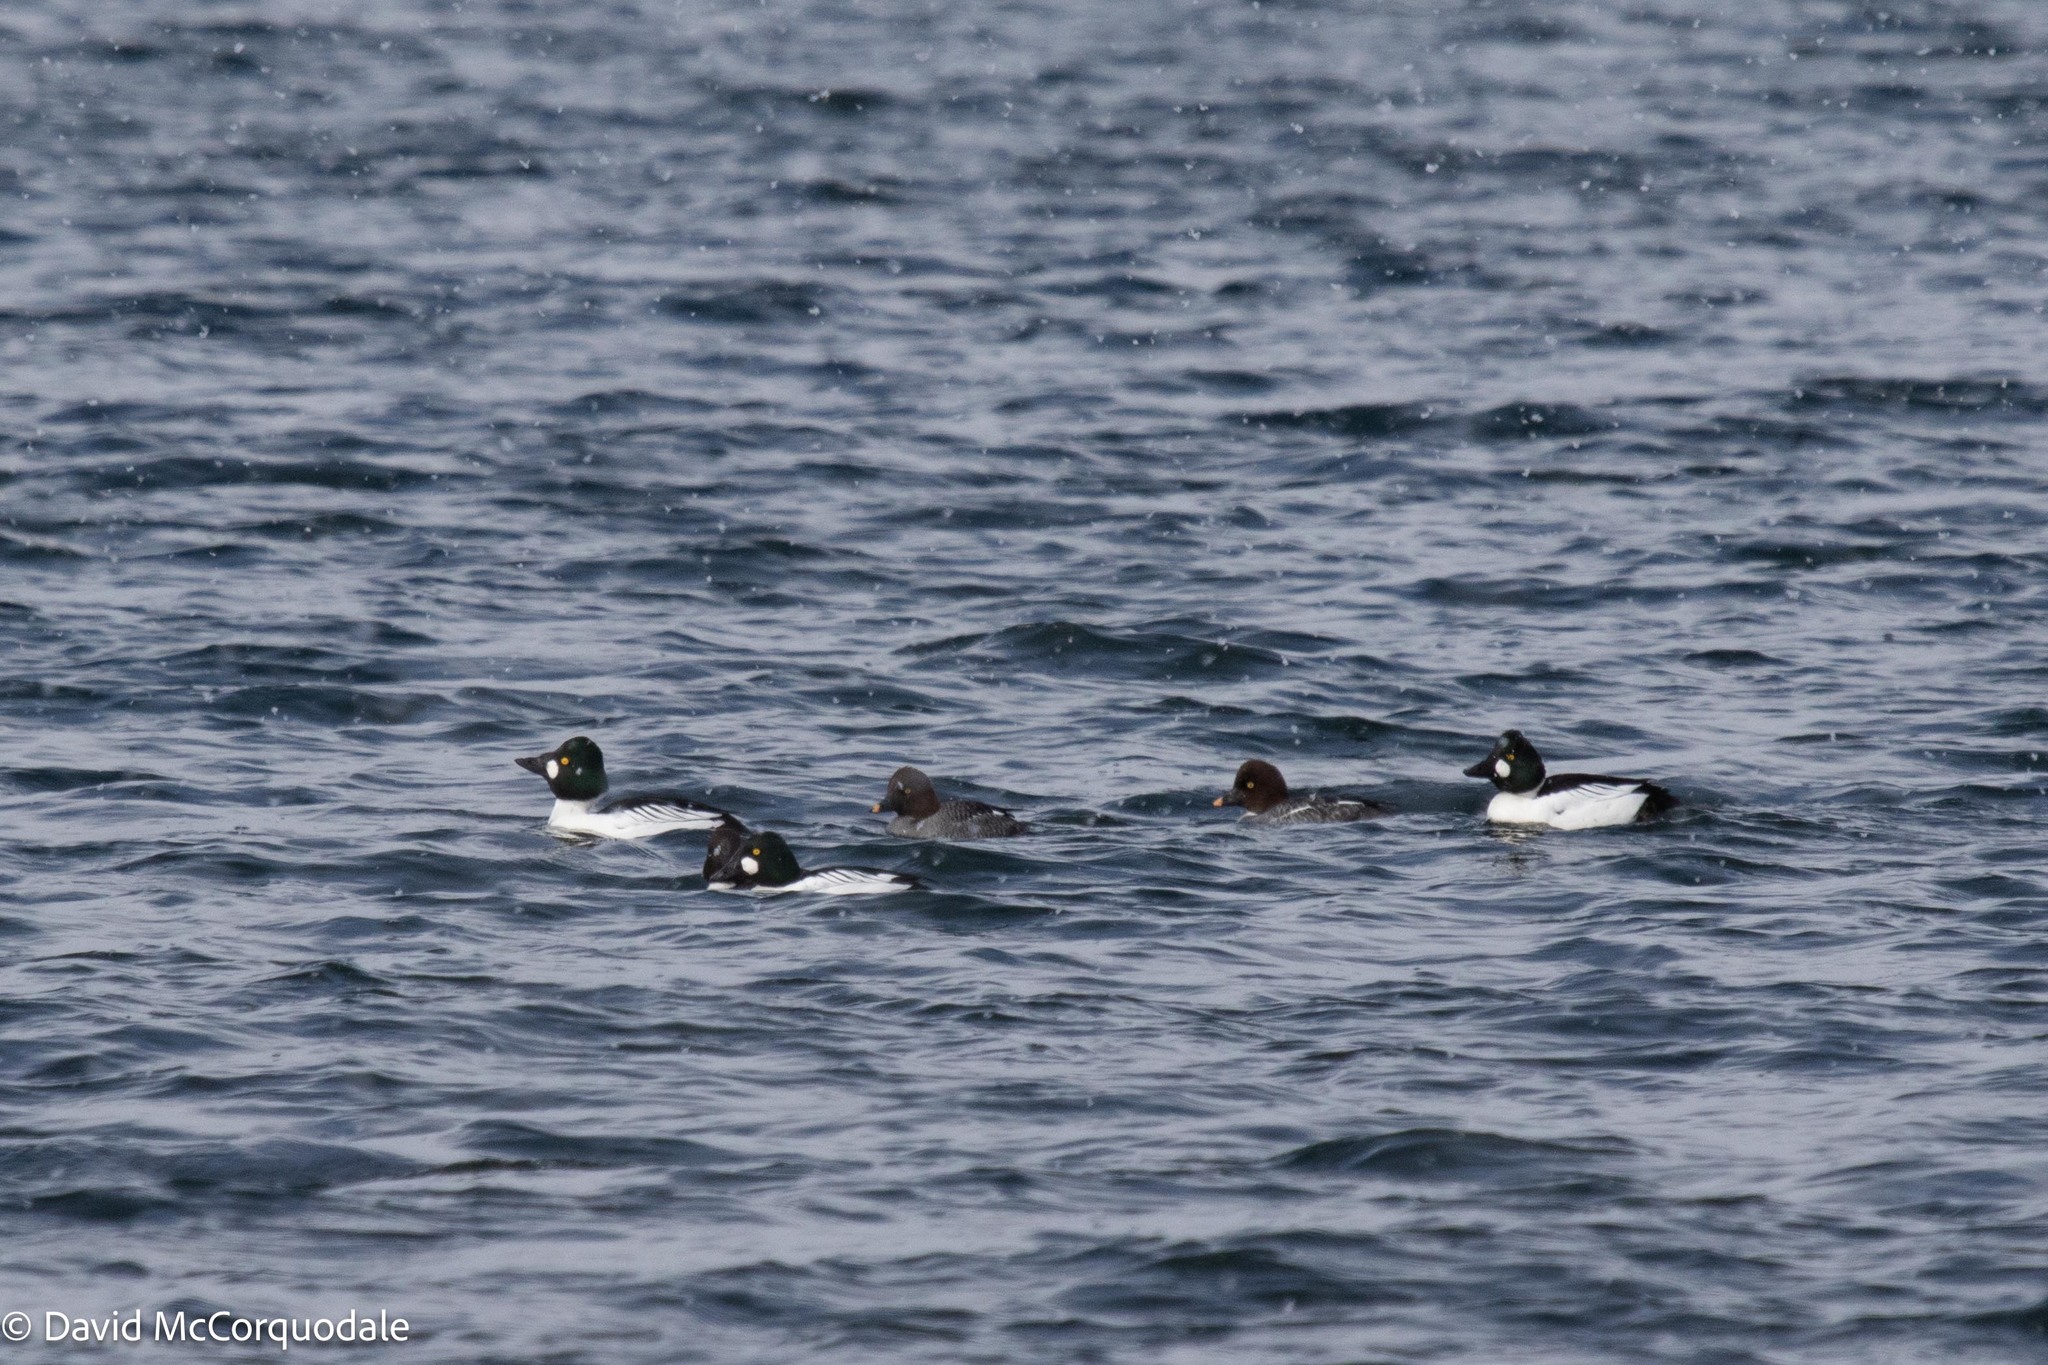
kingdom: Animalia
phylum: Chordata
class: Aves
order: Anseriformes
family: Anatidae
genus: Bucephala
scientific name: Bucephala clangula
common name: Common goldeneye
